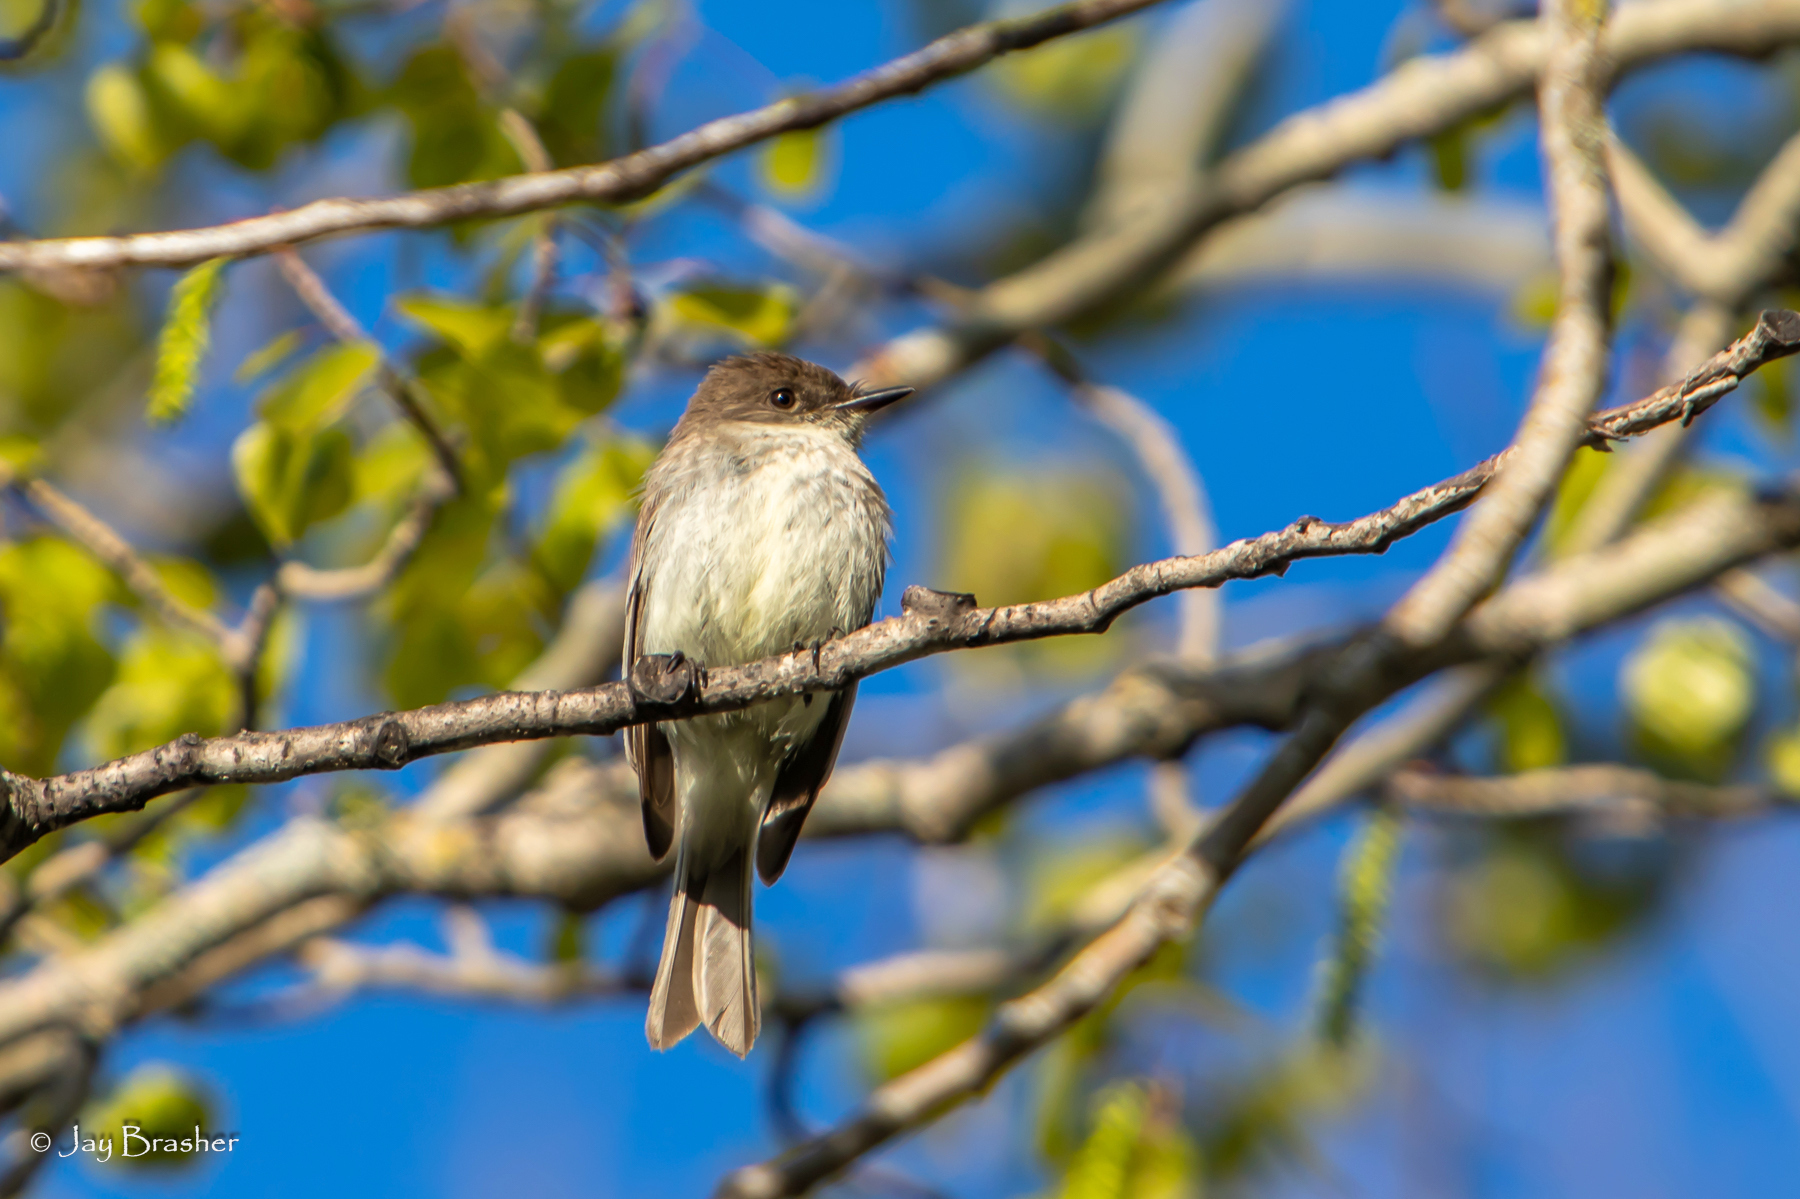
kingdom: Animalia
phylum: Chordata
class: Aves
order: Passeriformes
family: Tyrannidae
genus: Sayornis
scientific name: Sayornis phoebe
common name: Eastern phoebe
